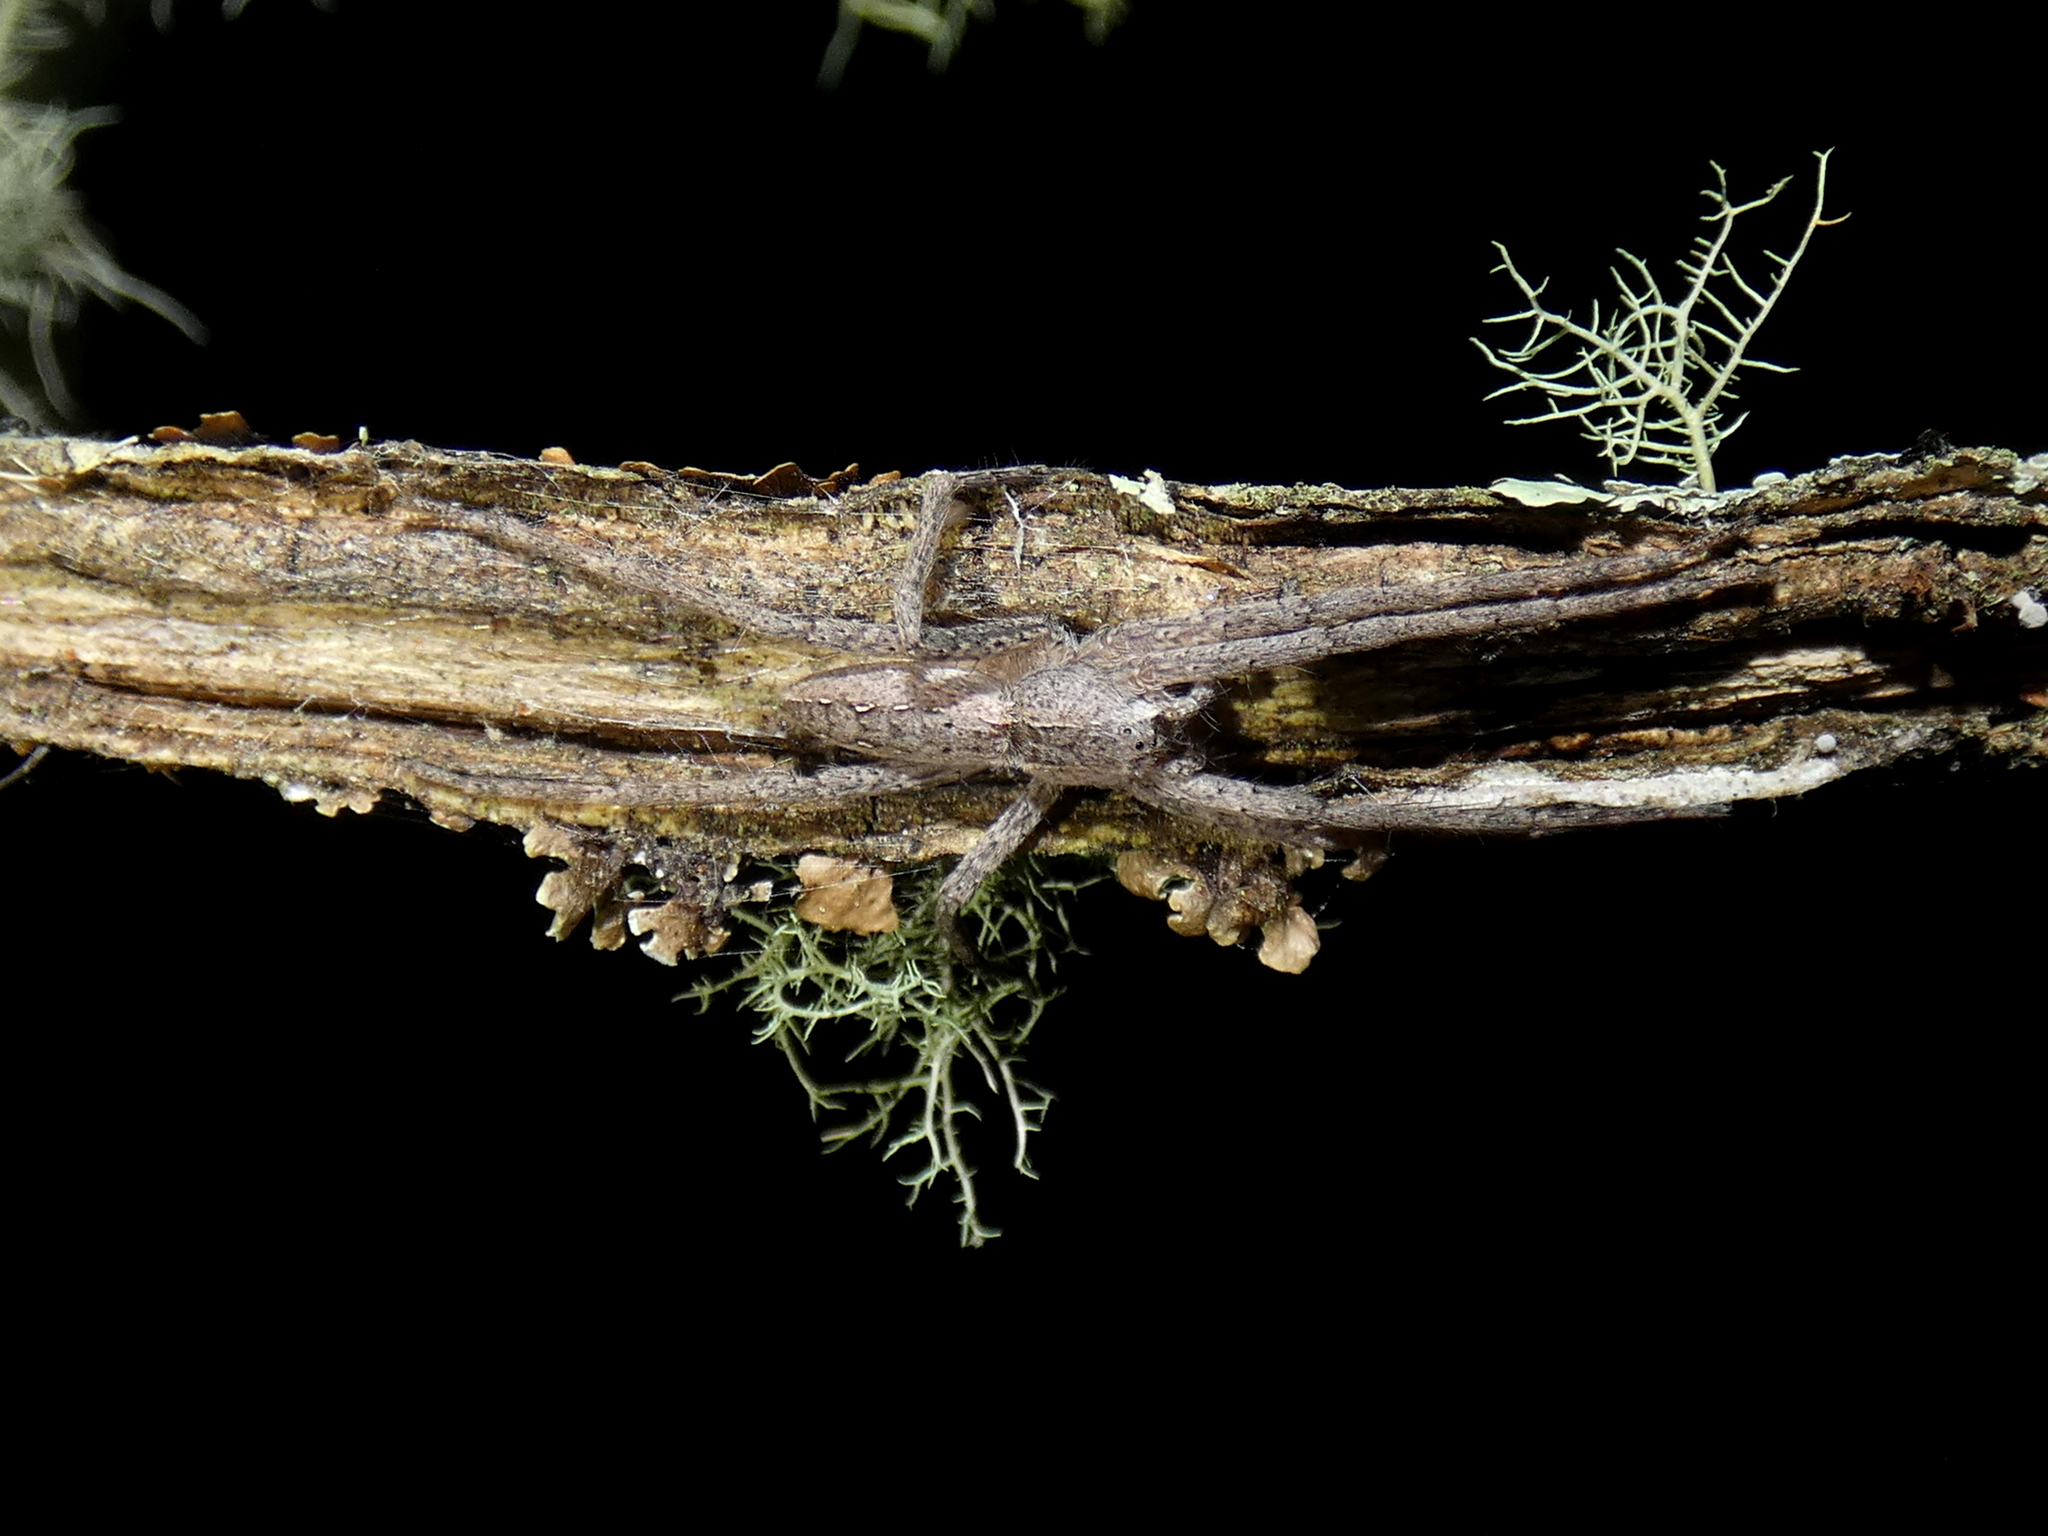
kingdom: Animalia
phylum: Arthropoda
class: Arachnida
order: Araneae
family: Pisauridae
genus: Pisaurina
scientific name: Pisaurina mira
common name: American nursery web spider
